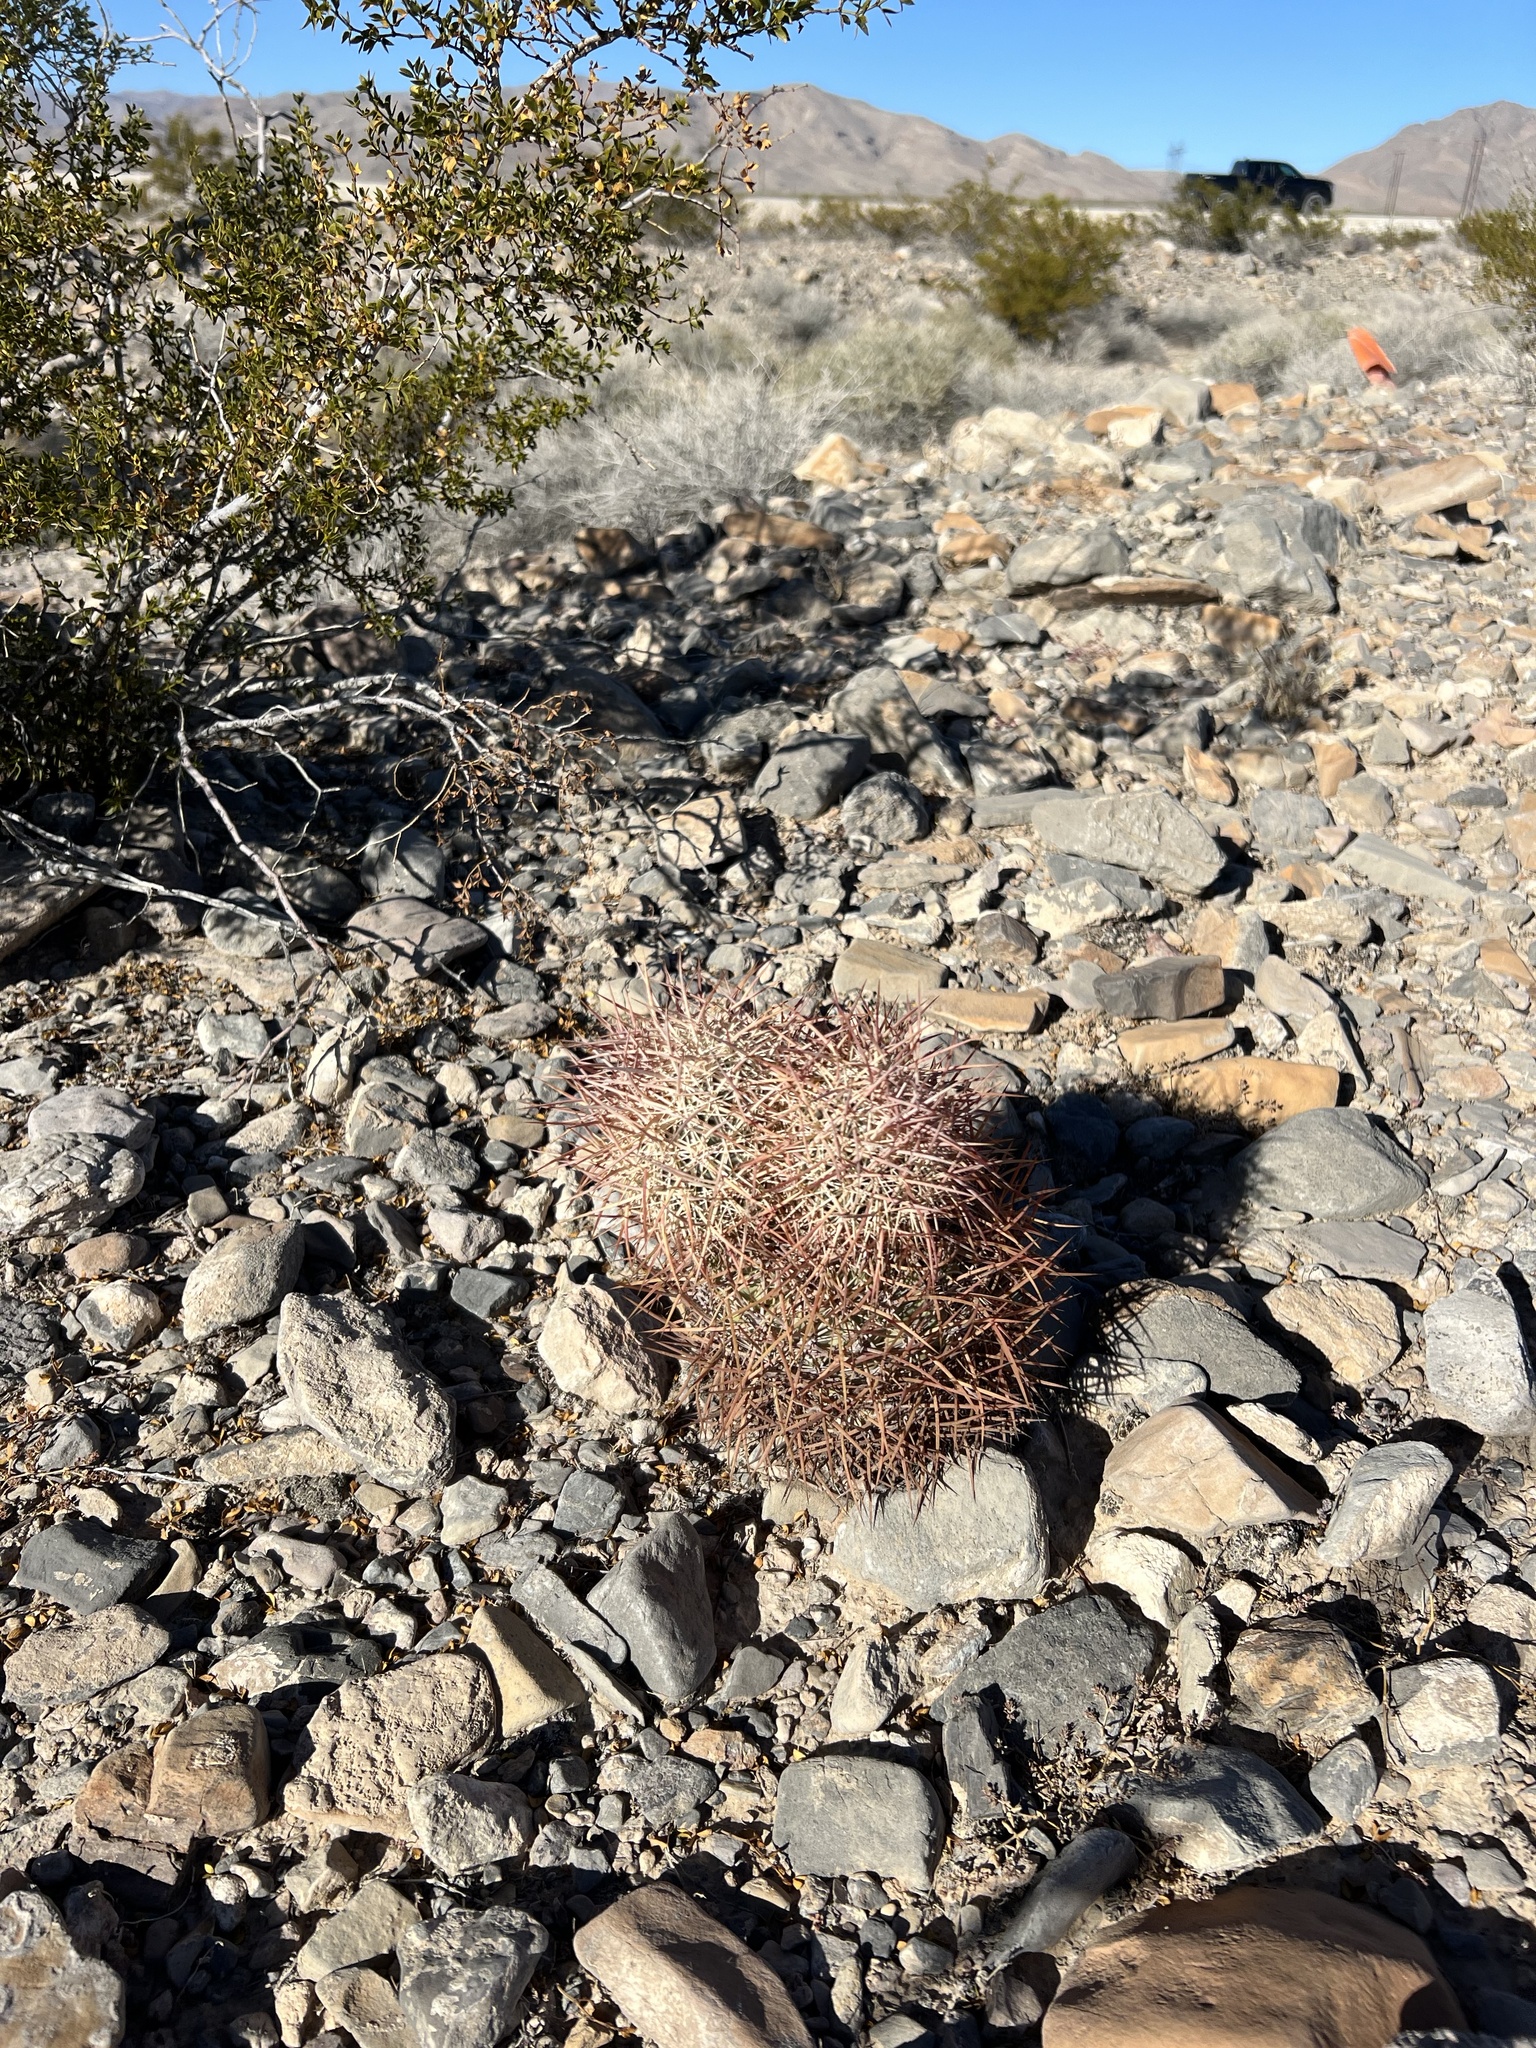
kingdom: Plantae
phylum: Tracheophyta
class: Magnoliopsida
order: Caryophyllales
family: Cactaceae
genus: Sclerocactus
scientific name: Sclerocactus johnsonii
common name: Eight-spine fishhook cactus
